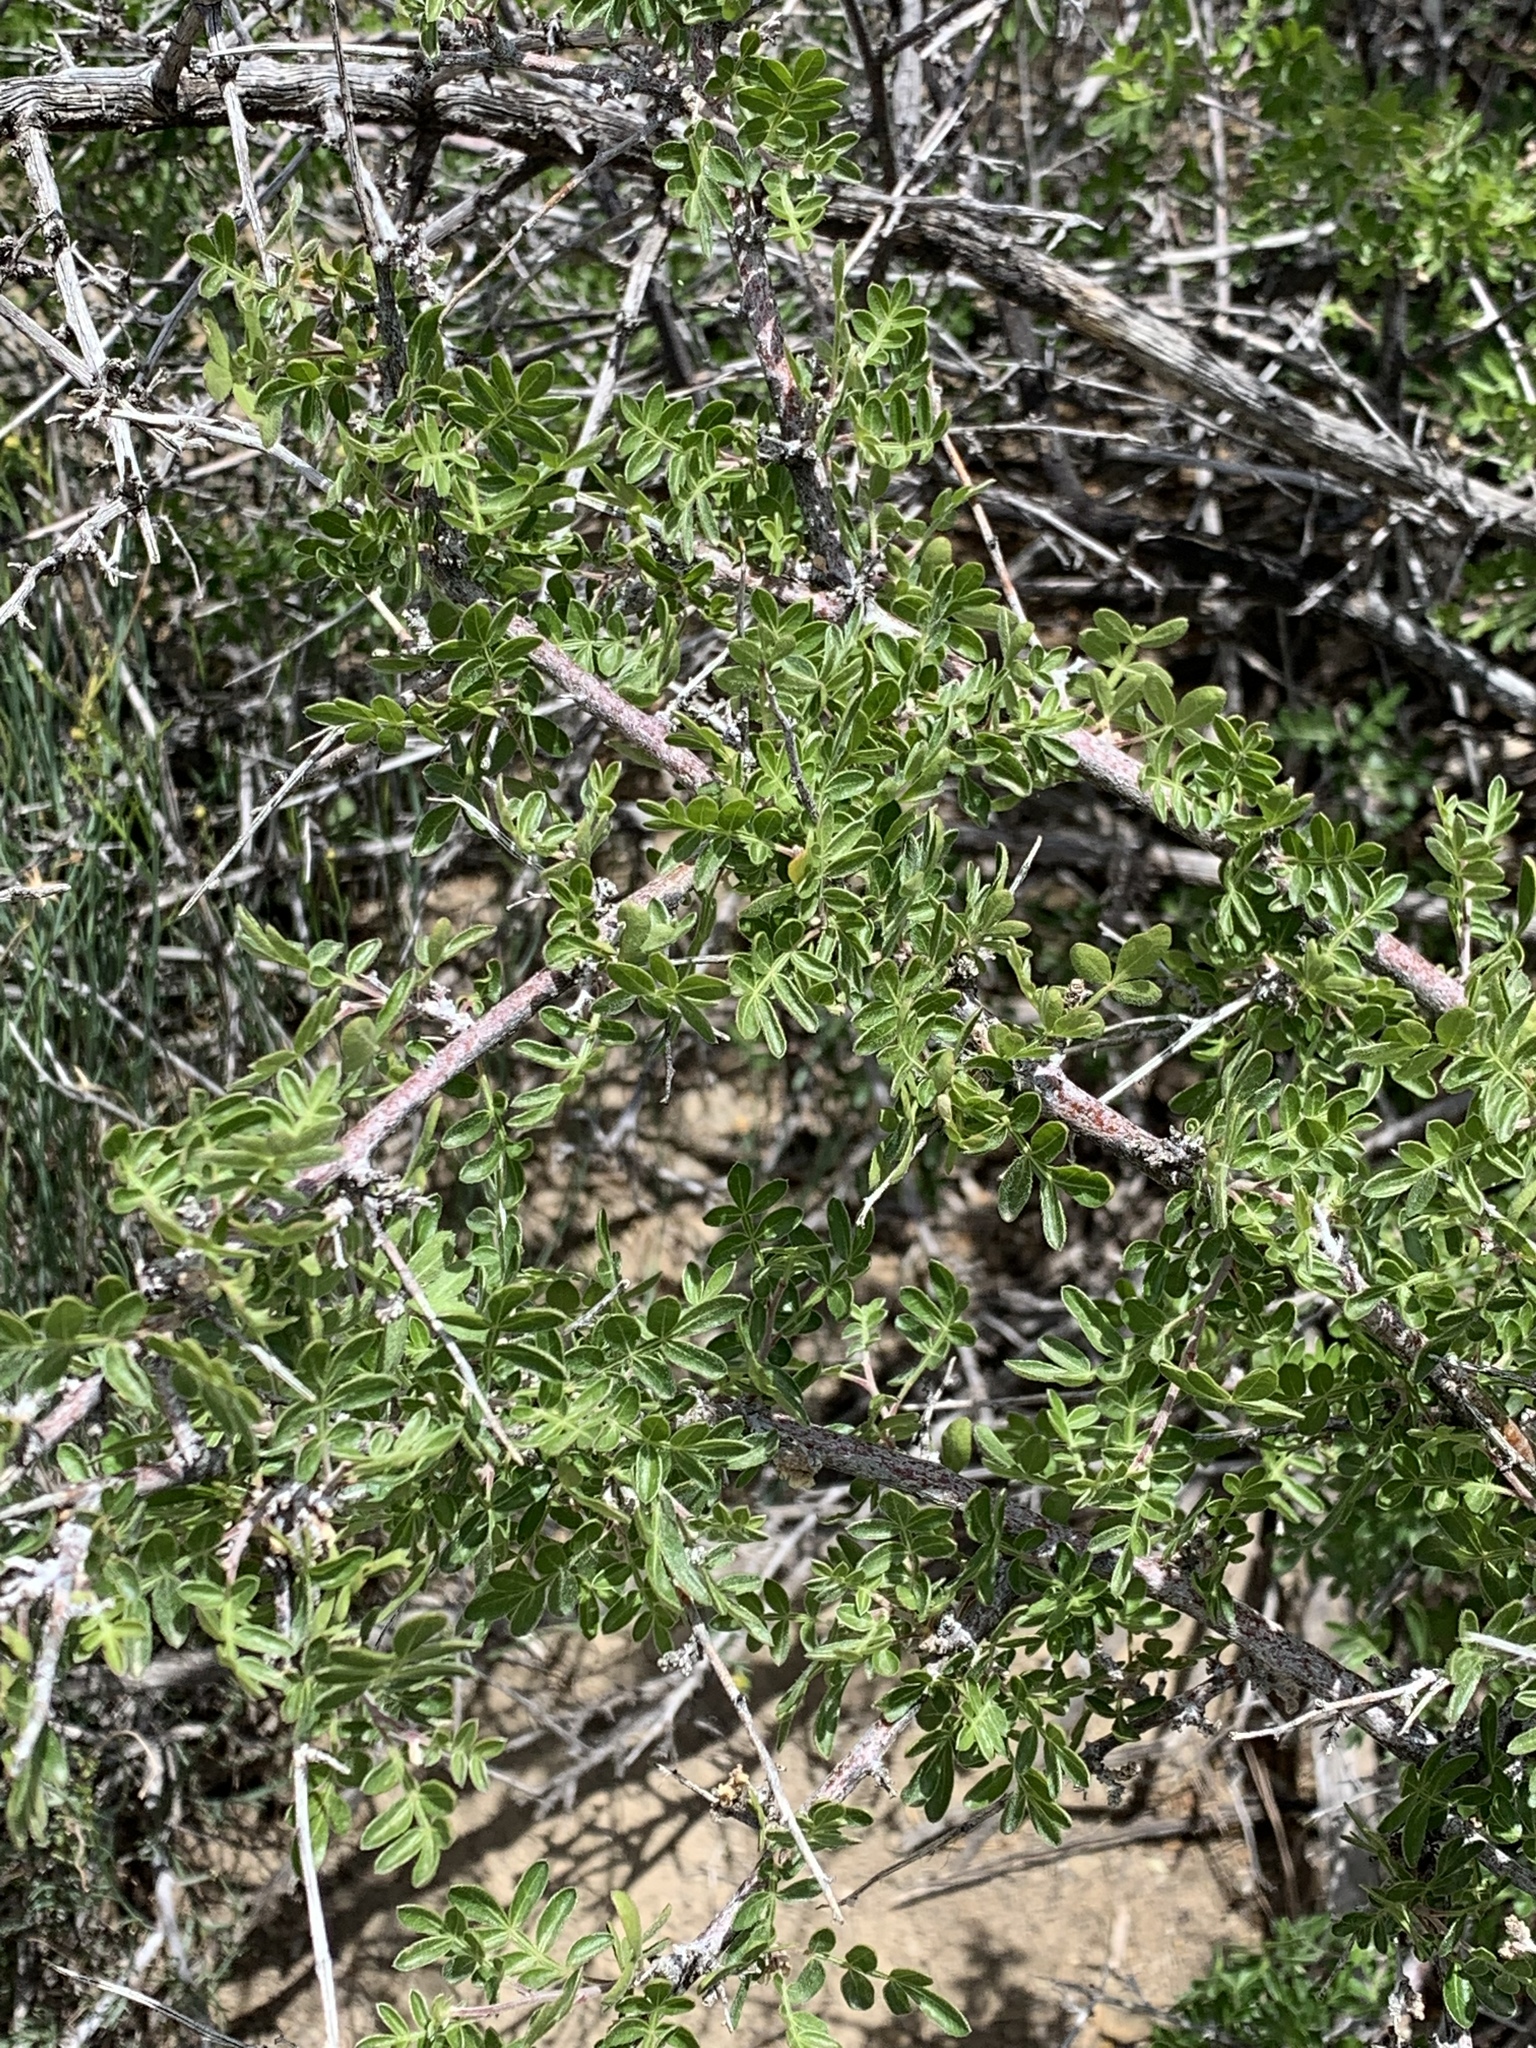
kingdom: Plantae
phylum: Tracheophyta
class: Magnoliopsida
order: Sapindales
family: Anacardiaceae
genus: Rhus
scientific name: Rhus microphylla
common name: Desert sumac
